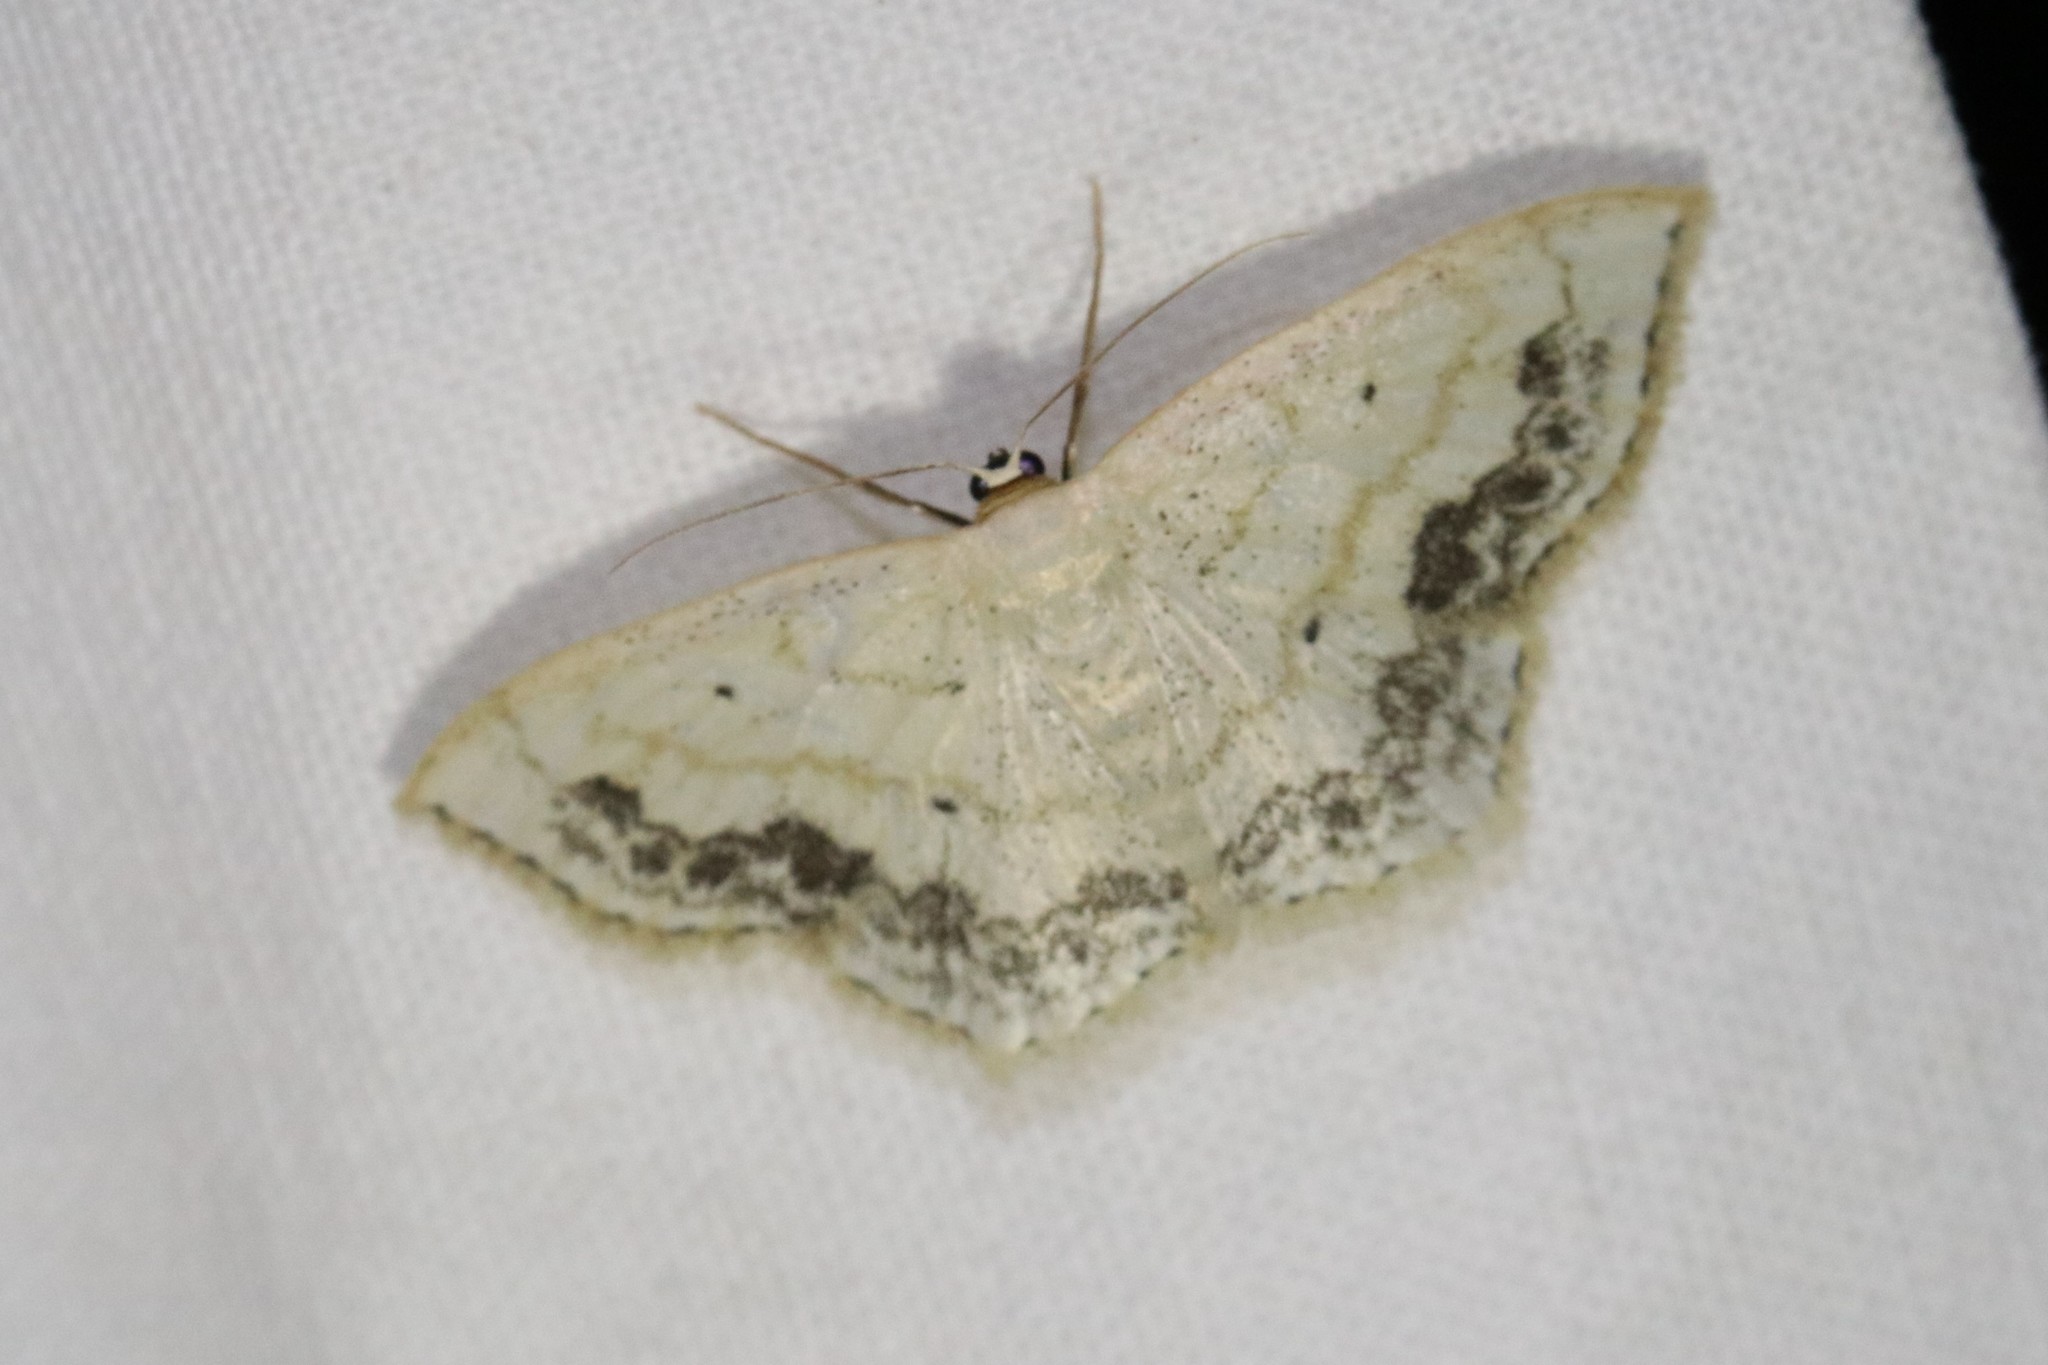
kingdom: Animalia
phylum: Arthropoda
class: Insecta
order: Lepidoptera
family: Geometridae
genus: Scopula
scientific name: Scopula limboundata
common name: Large lace border
